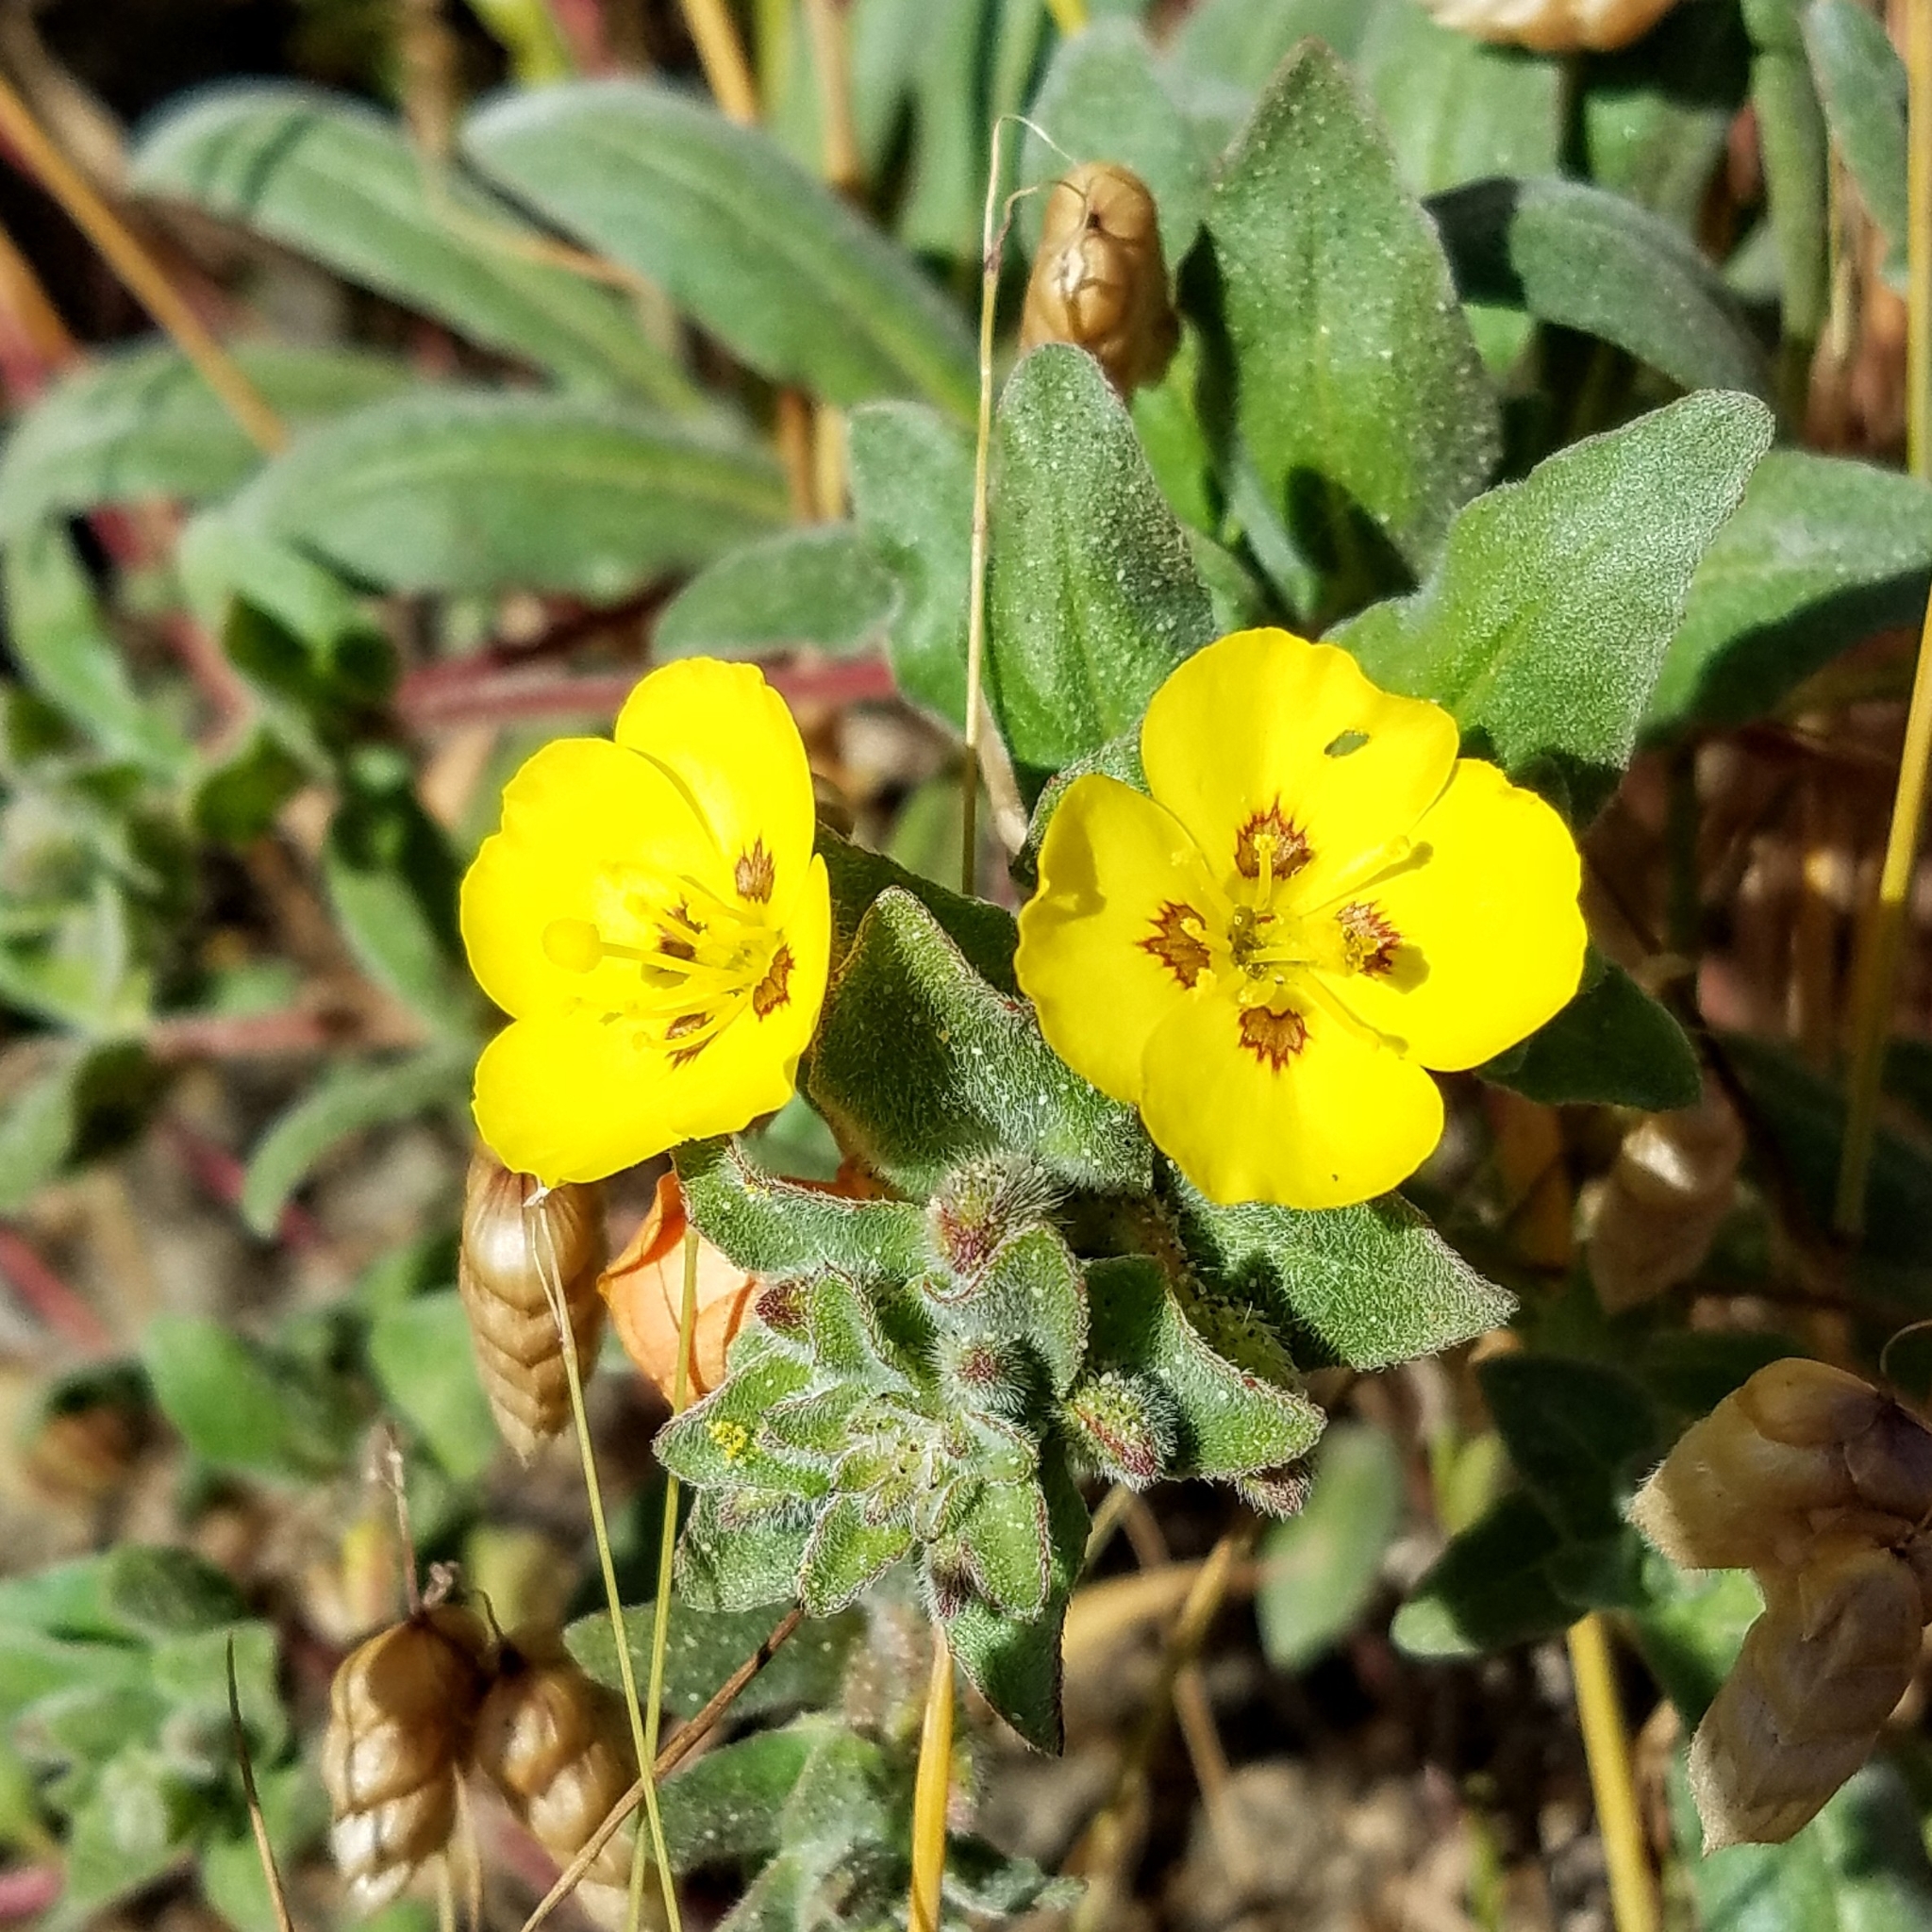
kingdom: Plantae
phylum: Tracheophyta
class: Magnoliopsida
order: Myrtales
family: Onagraceae
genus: Camissoniopsis
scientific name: Camissoniopsis cheiranthifolia
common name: Beach suncup
